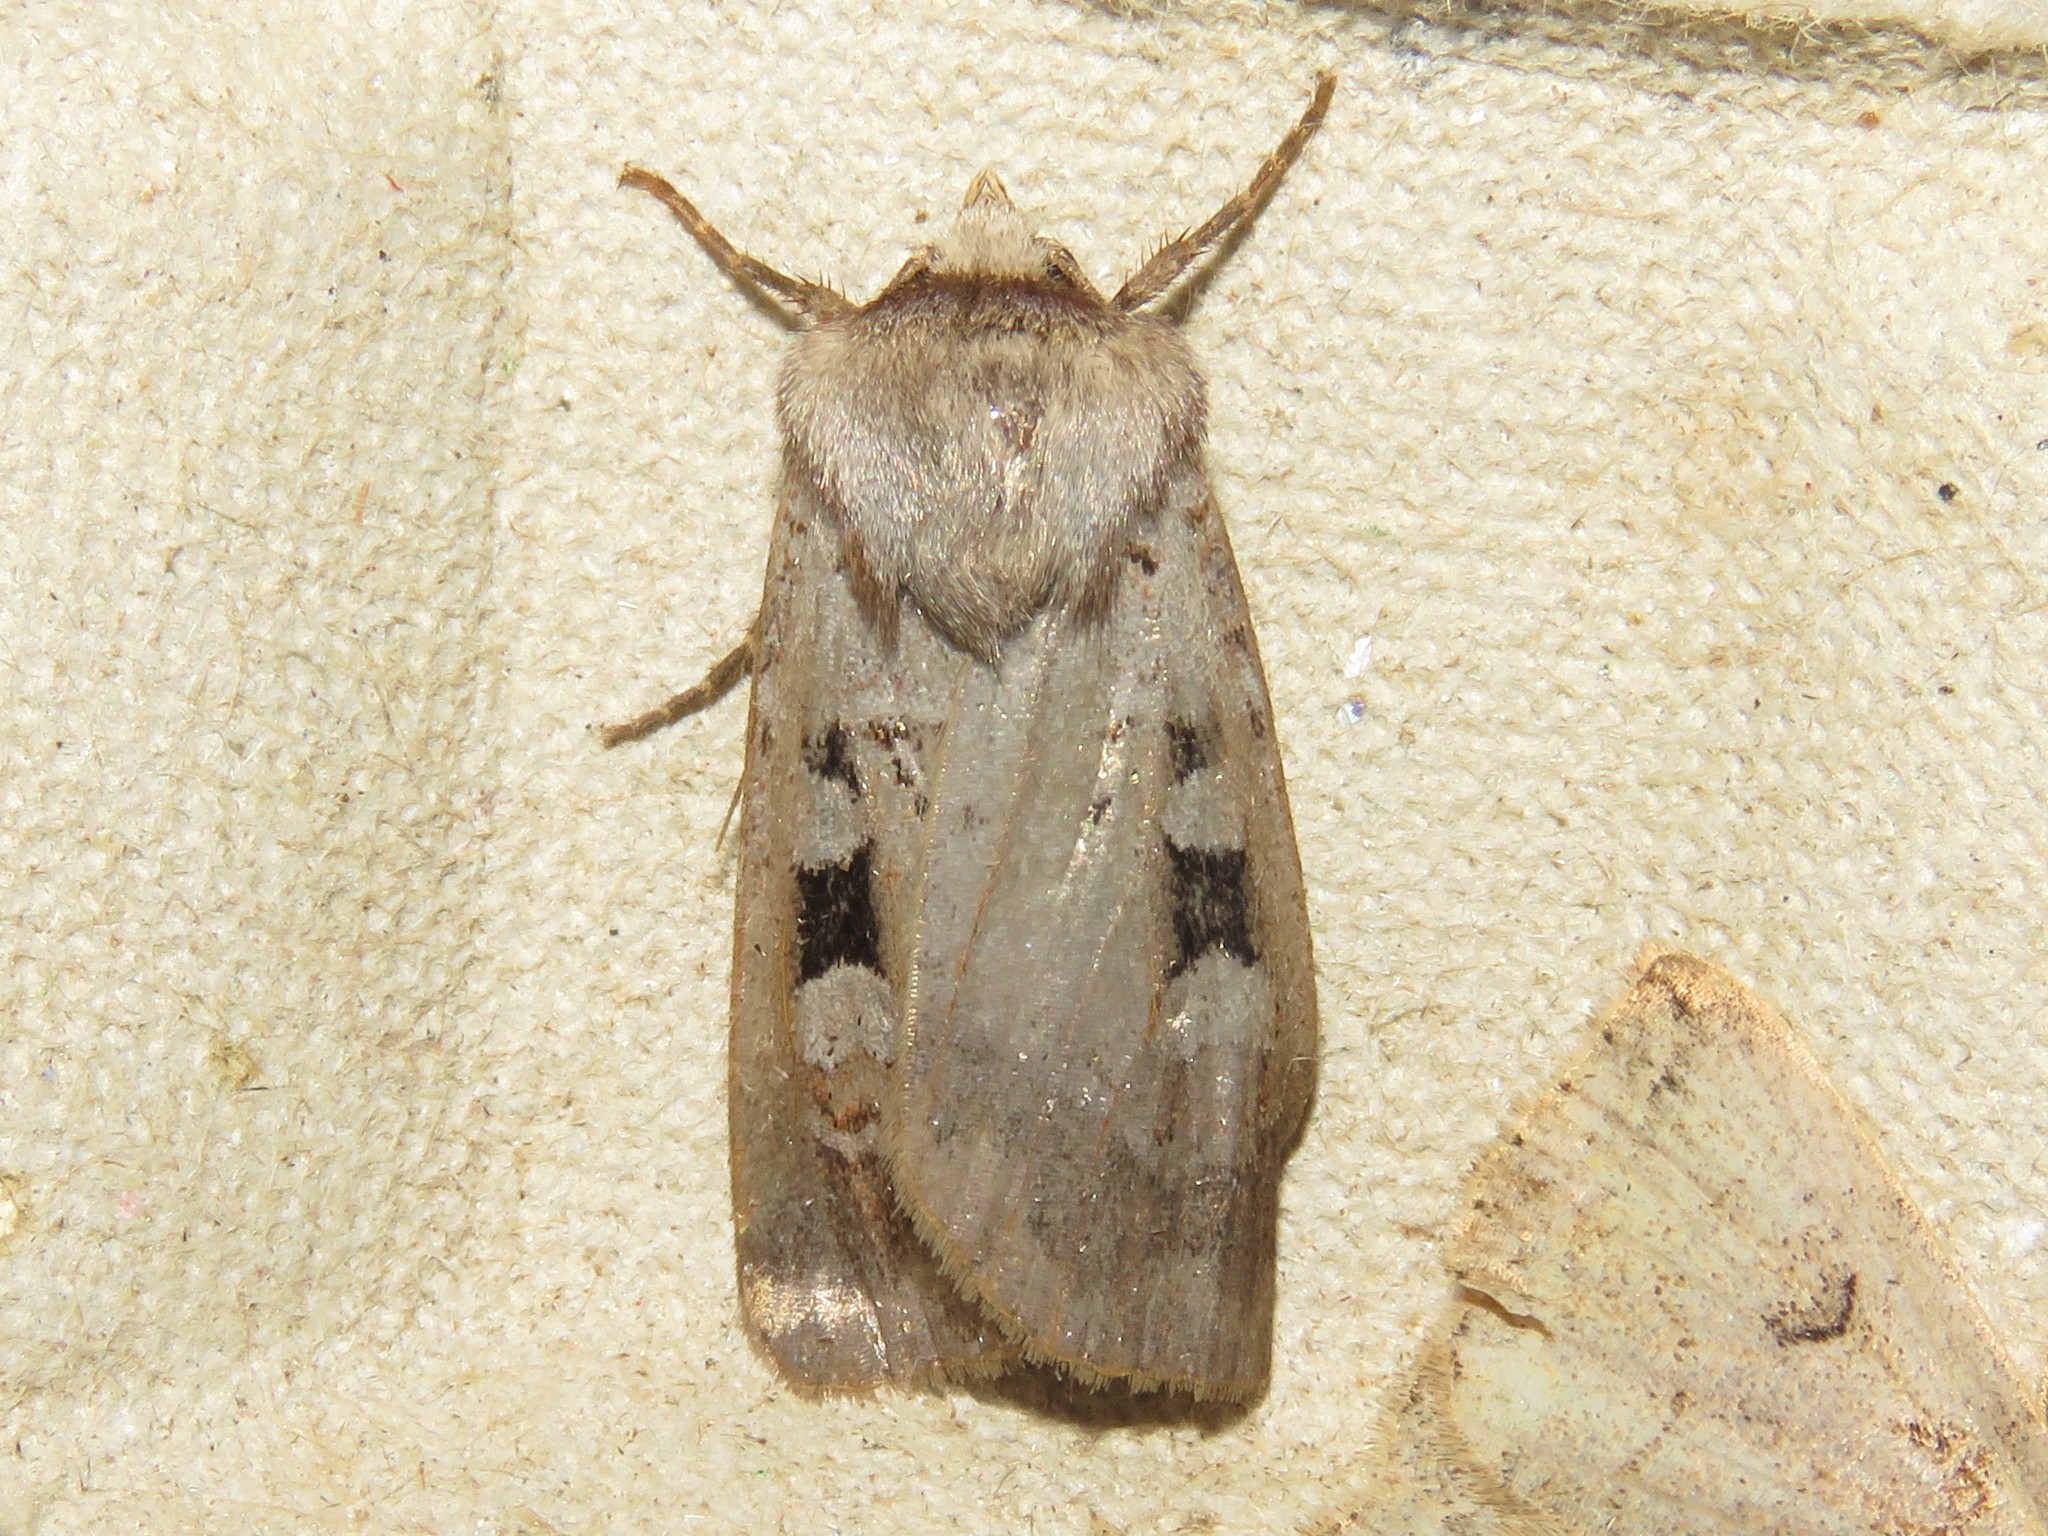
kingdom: Animalia
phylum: Arthropoda
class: Insecta
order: Lepidoptera
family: Noctuidae
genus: Feltia
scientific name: Feltia mollis
